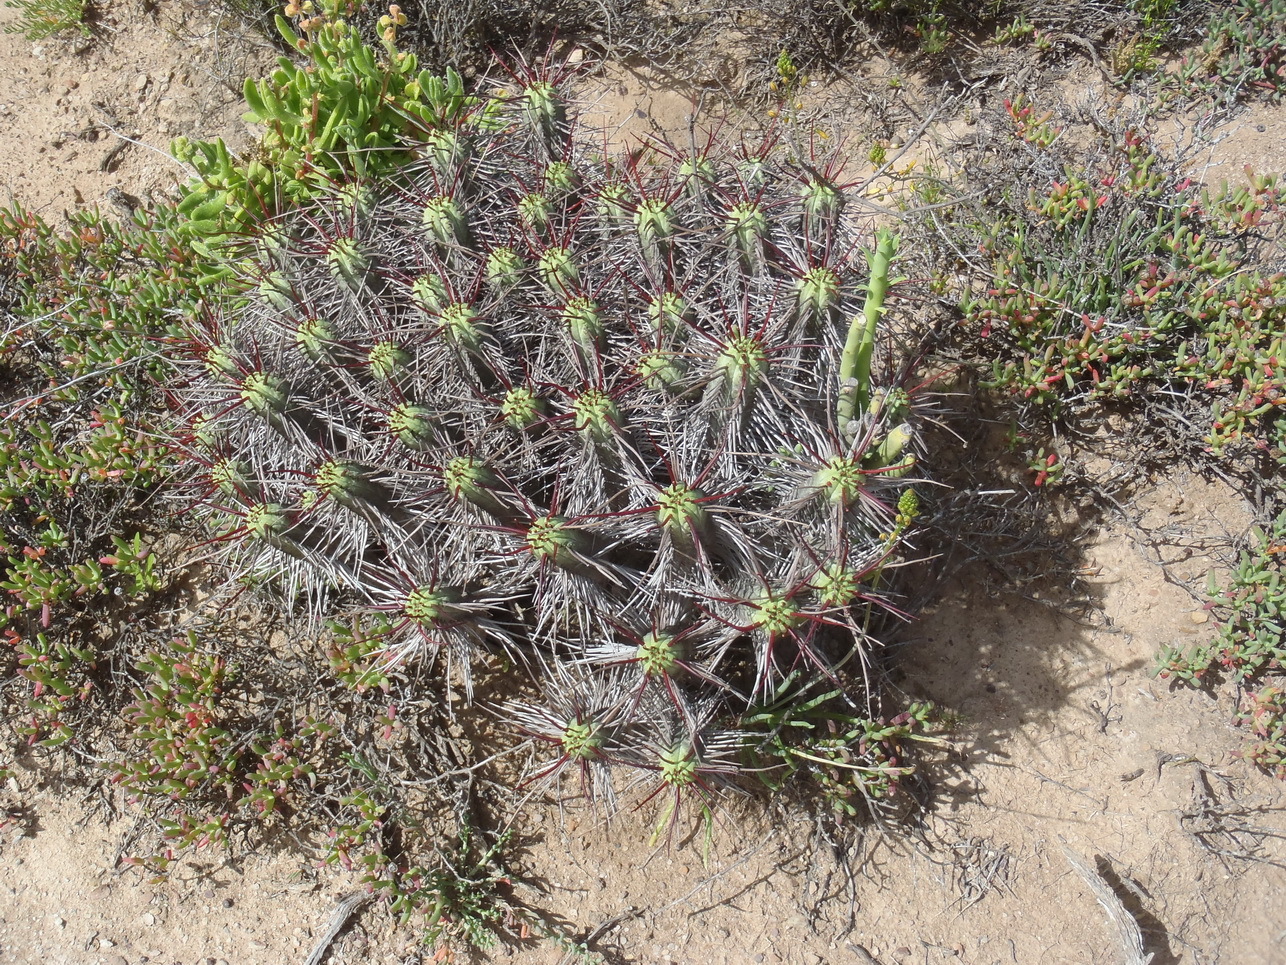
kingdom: Plantae
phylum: Tracheophyta
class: Magnoliopsida
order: Malpighiales
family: Euphorbiaceae
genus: Euphorbia
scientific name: Euphorbia heptagona
